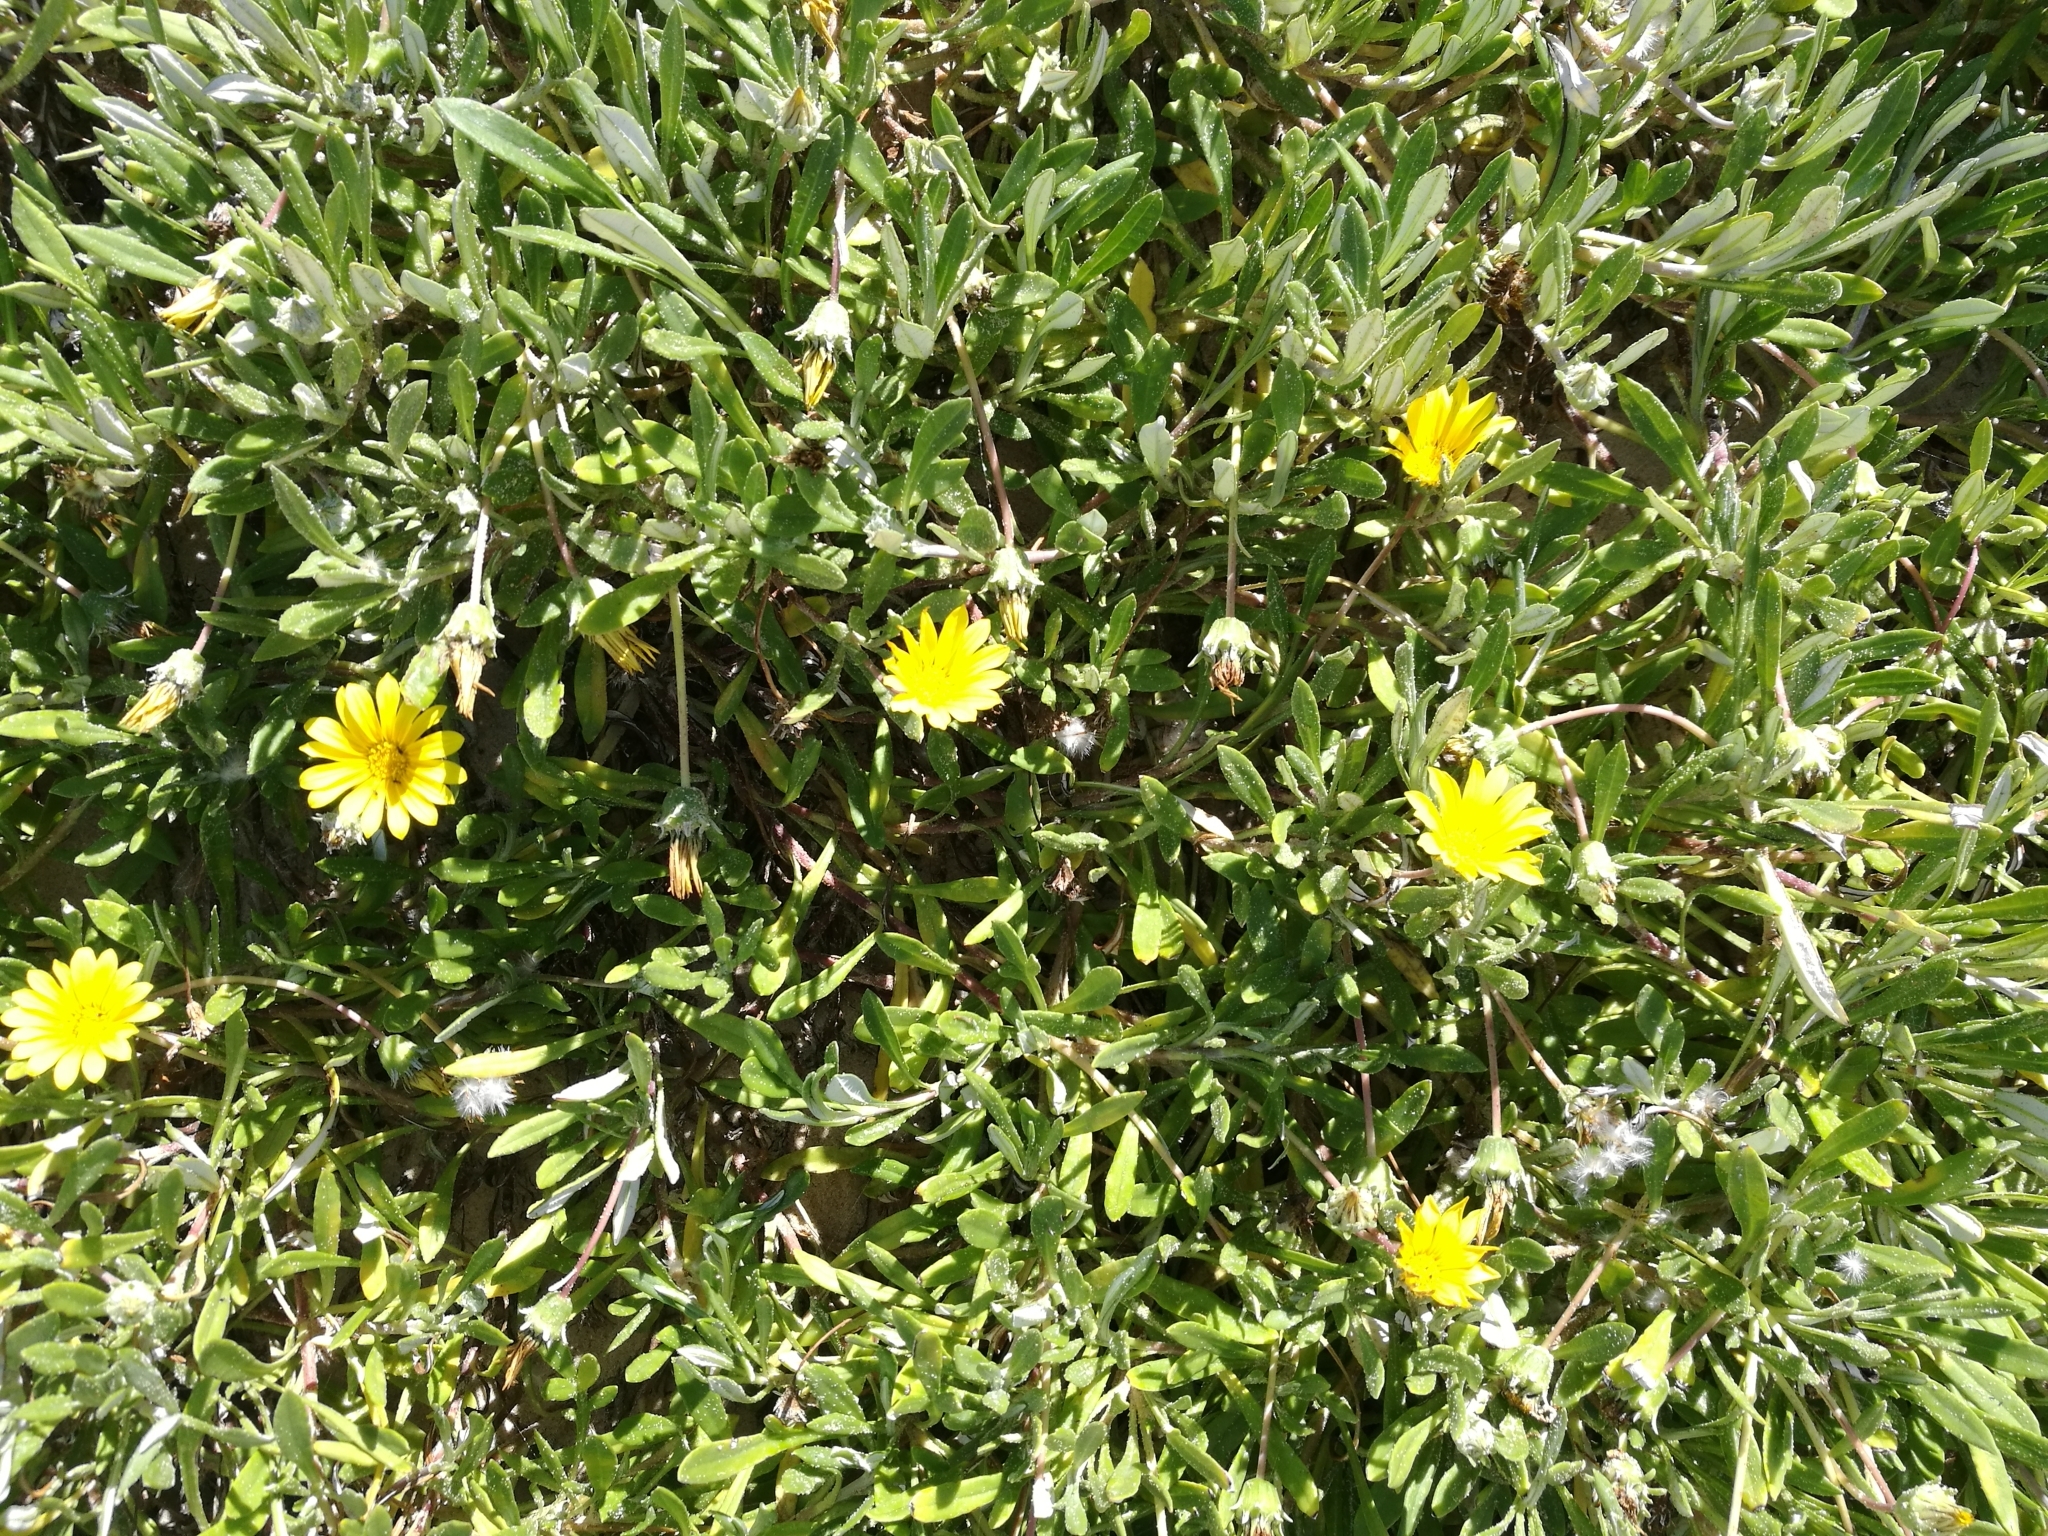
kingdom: Plantae
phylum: Tracheophyta
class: Magnoliopsida
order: Asterales
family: Asteraceae
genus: Gazania
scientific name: Gazania rigens
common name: Treasureflower
